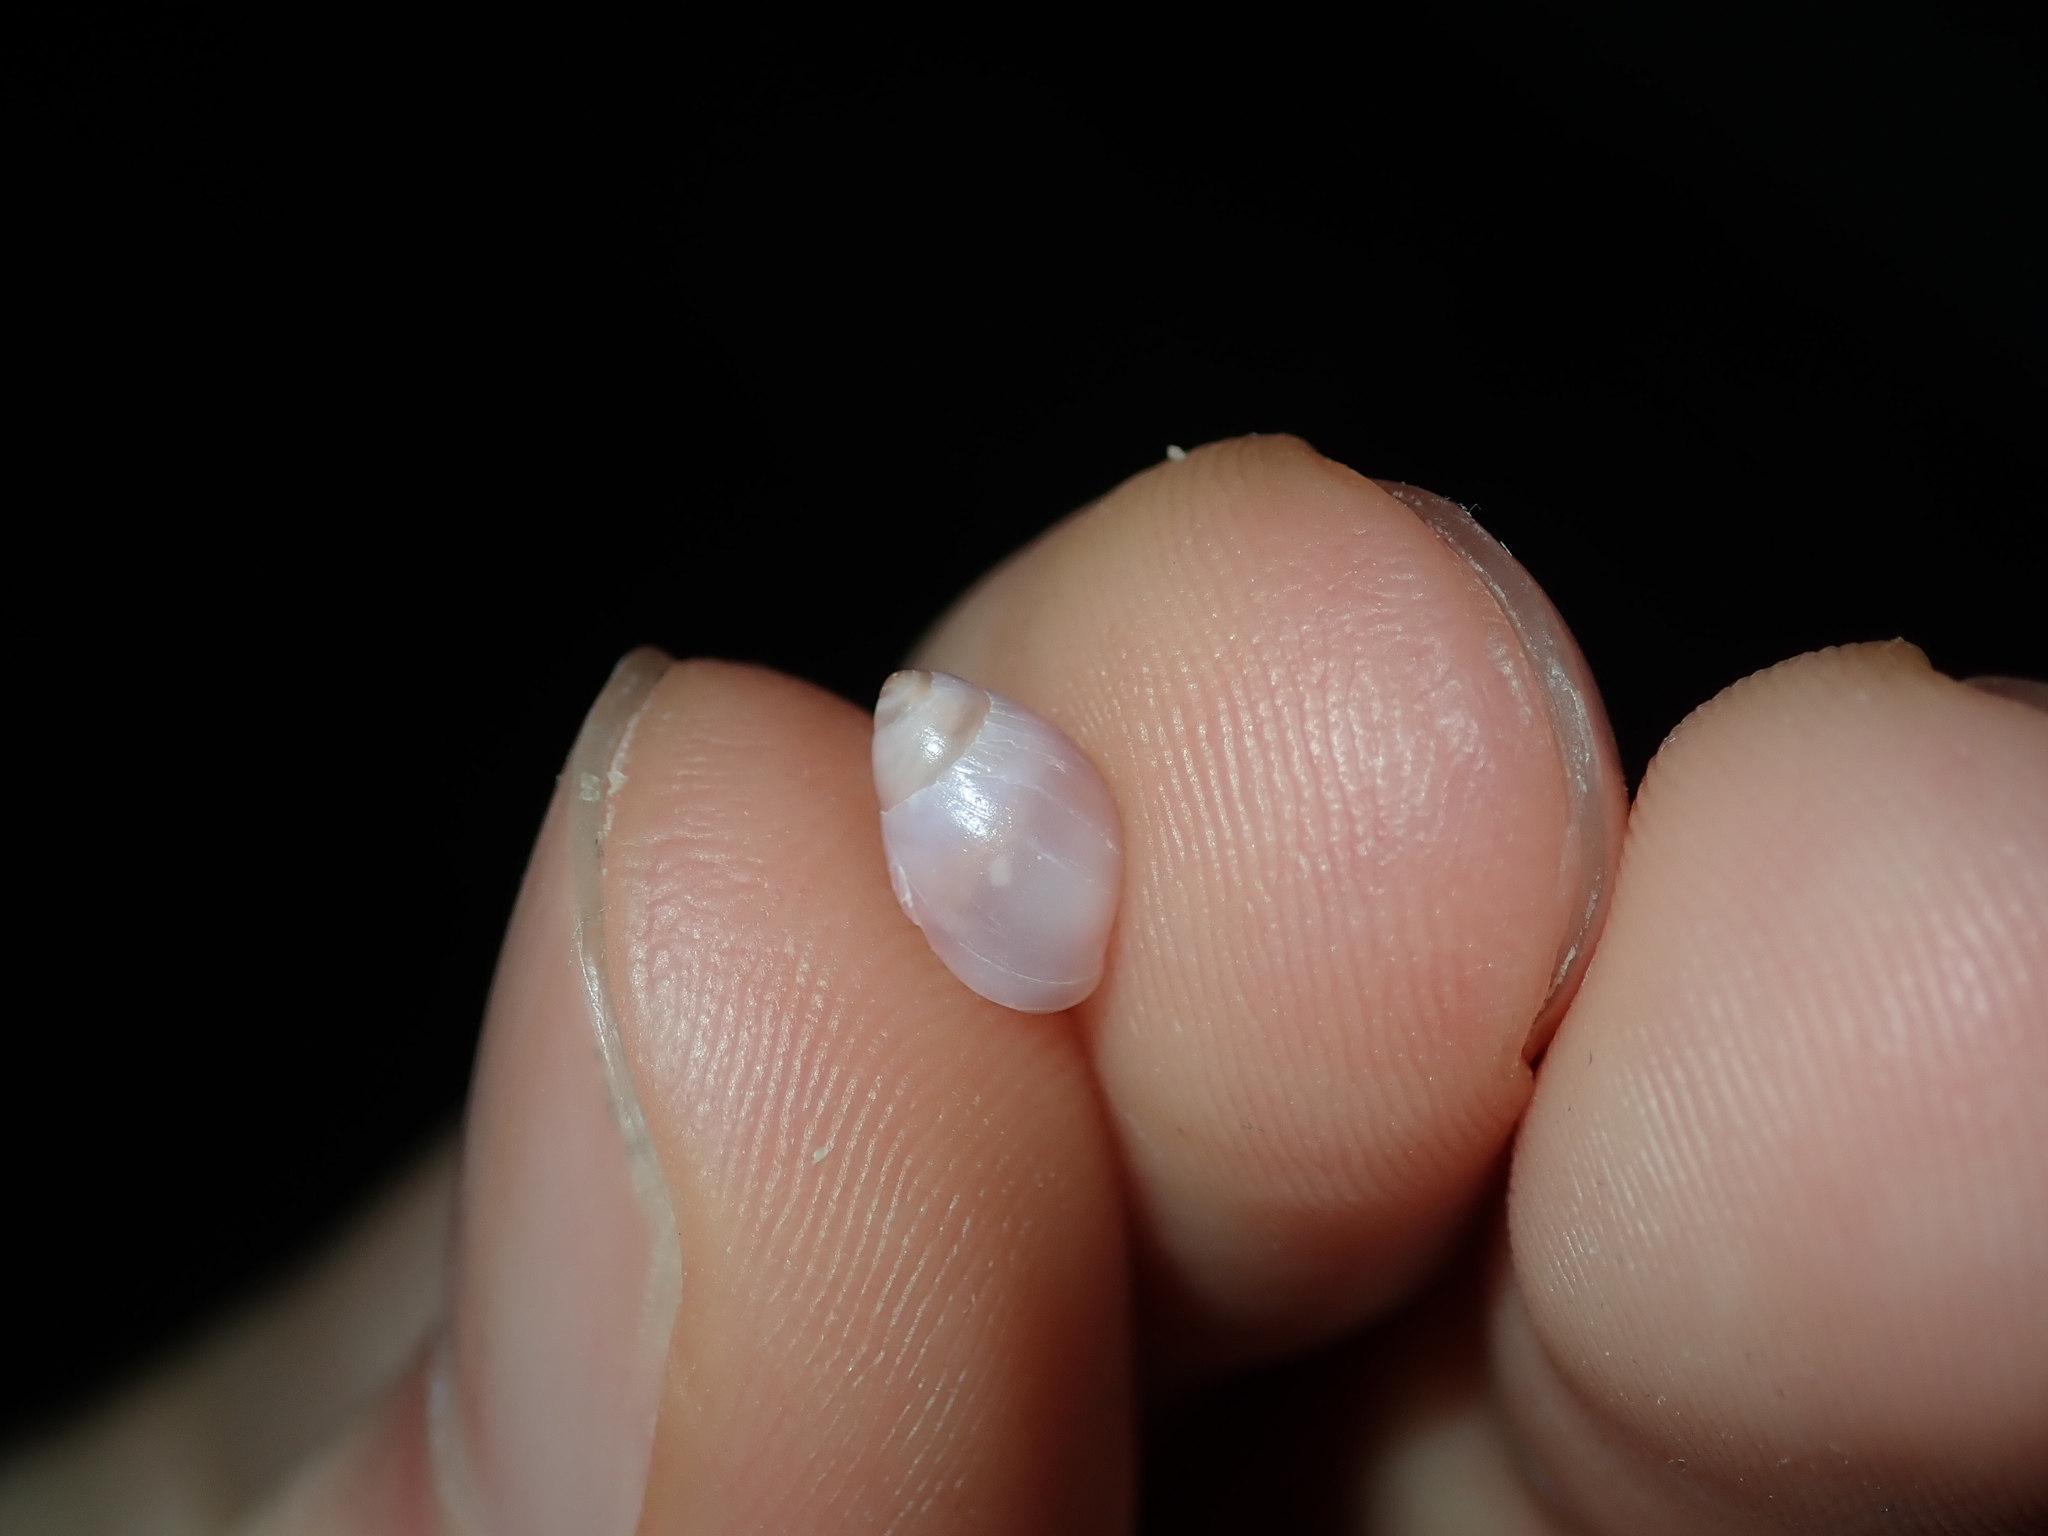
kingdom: Animalia
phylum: Mollusca
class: Gastropoda
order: Ellobiida
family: Ellobiidae
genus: Marinula
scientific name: Marinula xanthostoma
